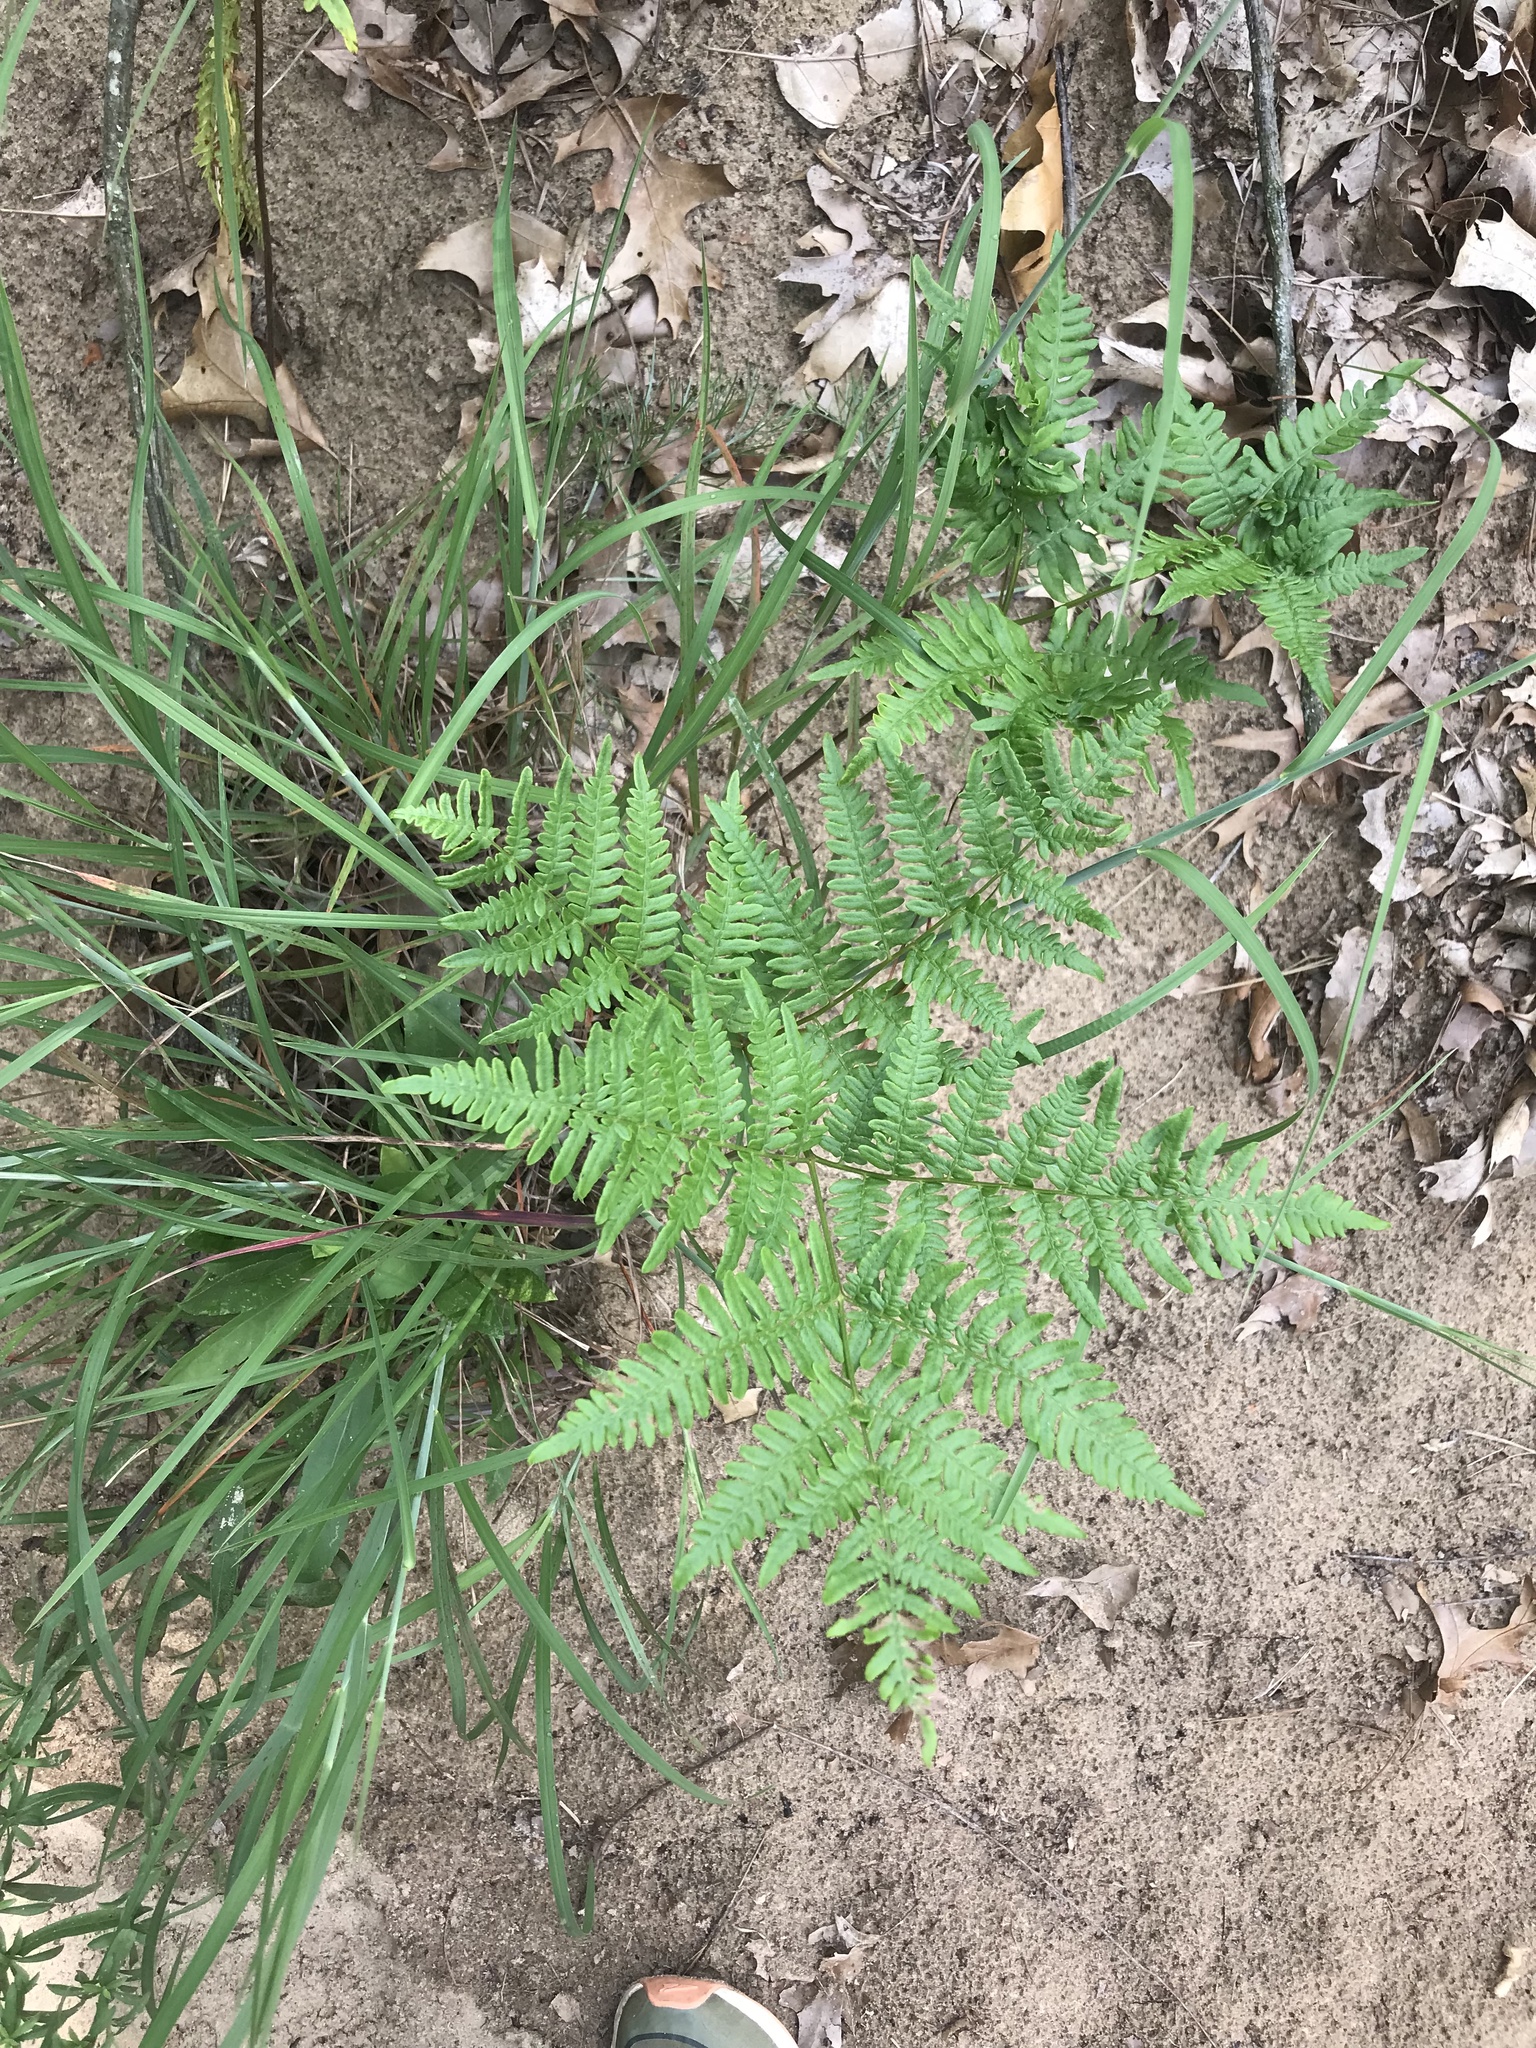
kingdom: Plantae
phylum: Tracheophyta
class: Polypodiopsida
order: Polypodiales
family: Dennstaedtiaceae
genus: Pteridium
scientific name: Pteridium aquilinum
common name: Bracken
